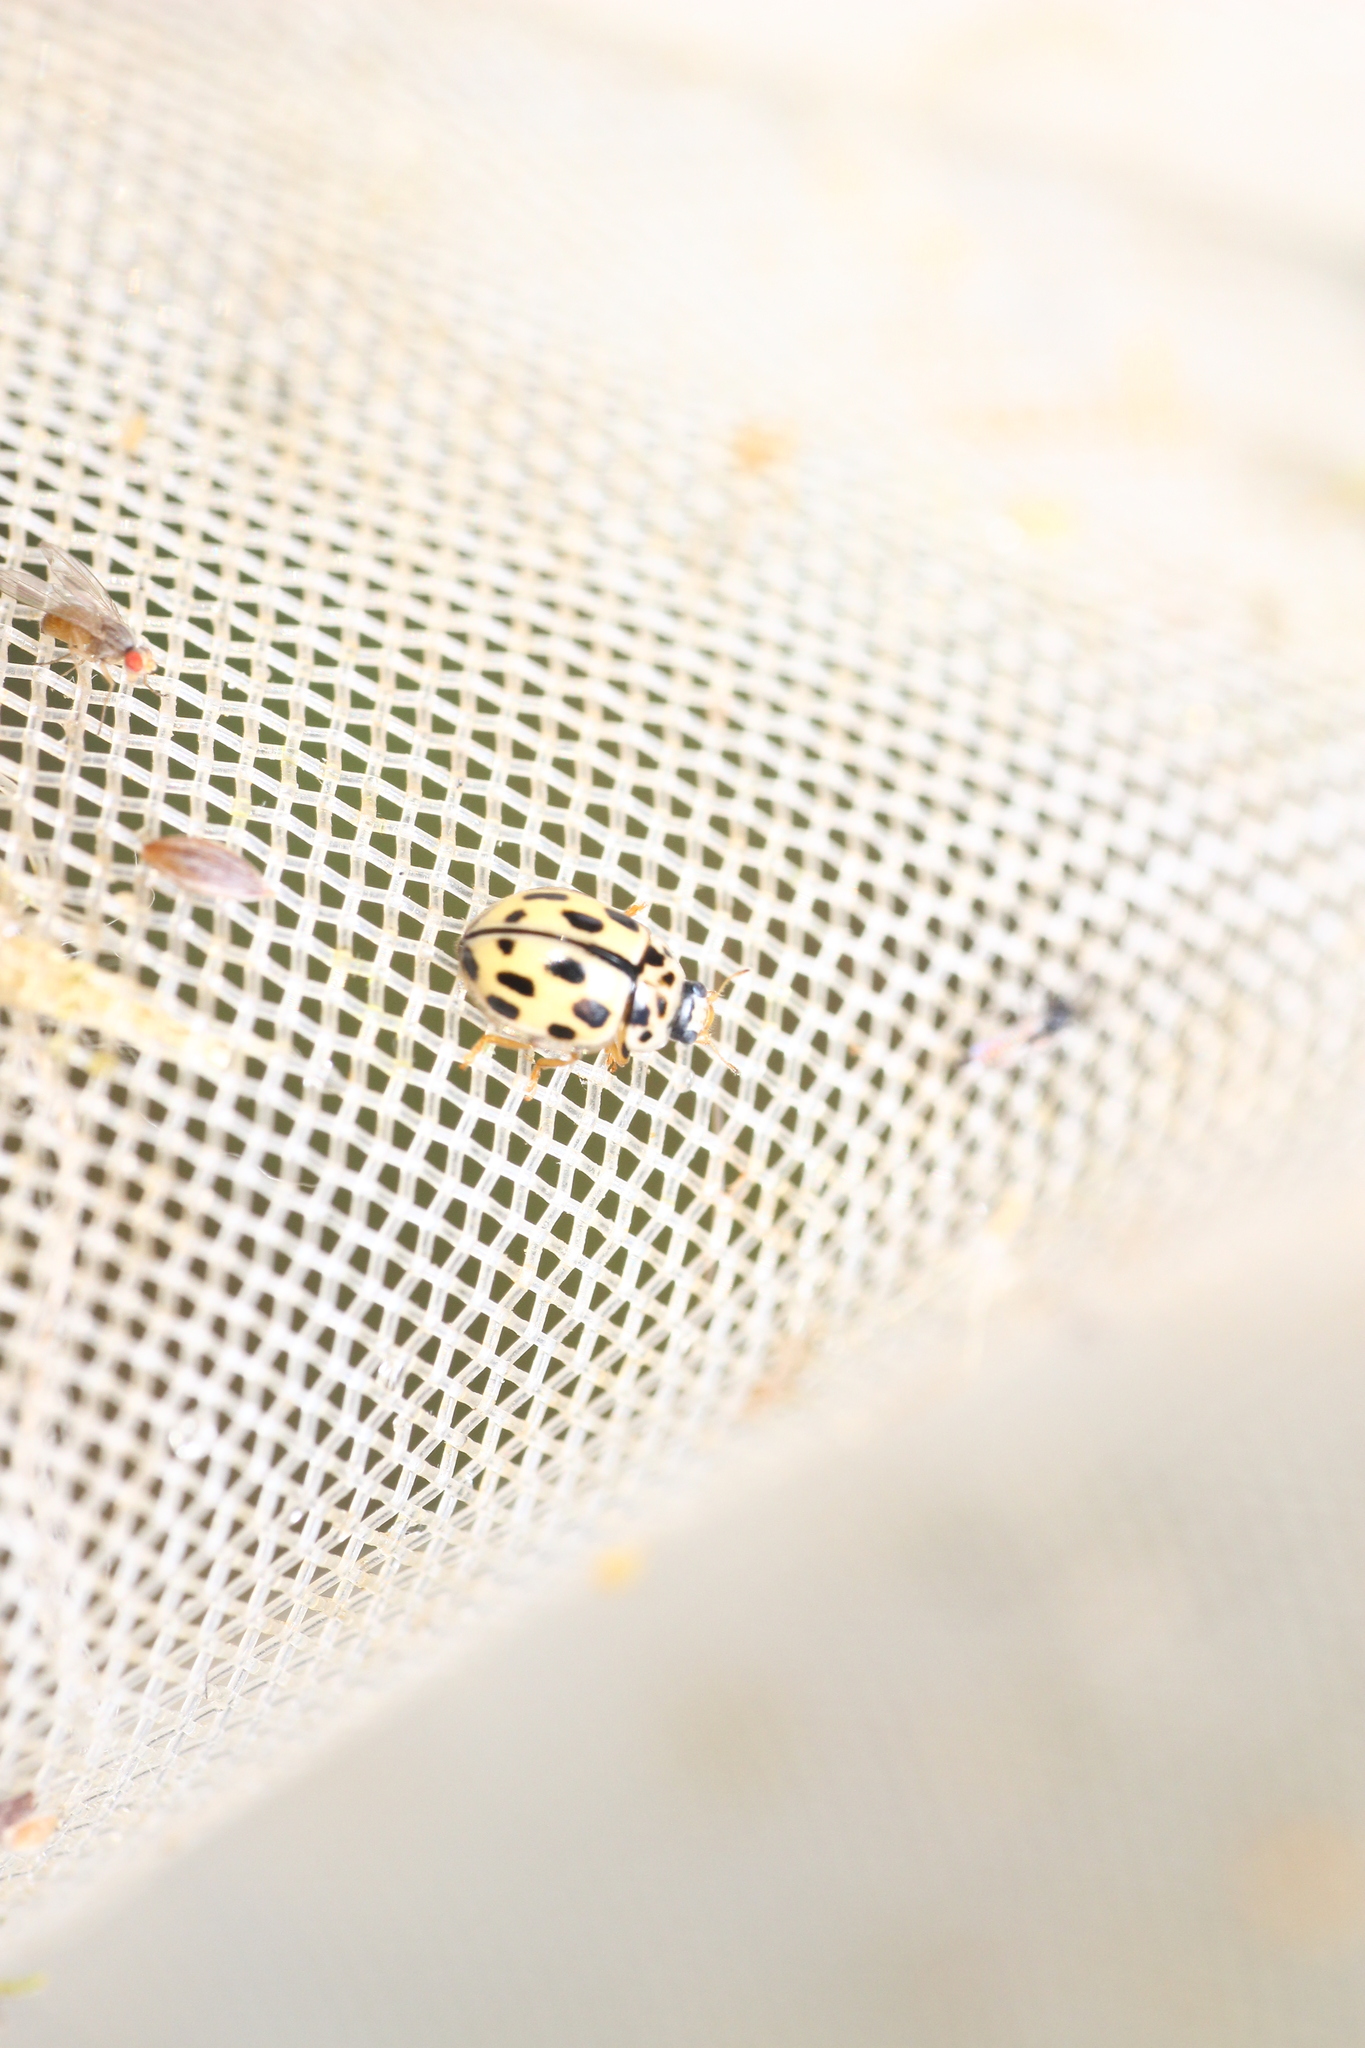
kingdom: Animalia
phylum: Arthropoda
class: Insecta
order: Coleoptera
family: Coccinellidae
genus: Propylaea
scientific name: Propylaea quatuordecimpunctata
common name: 14-spotted ladybird beetle
